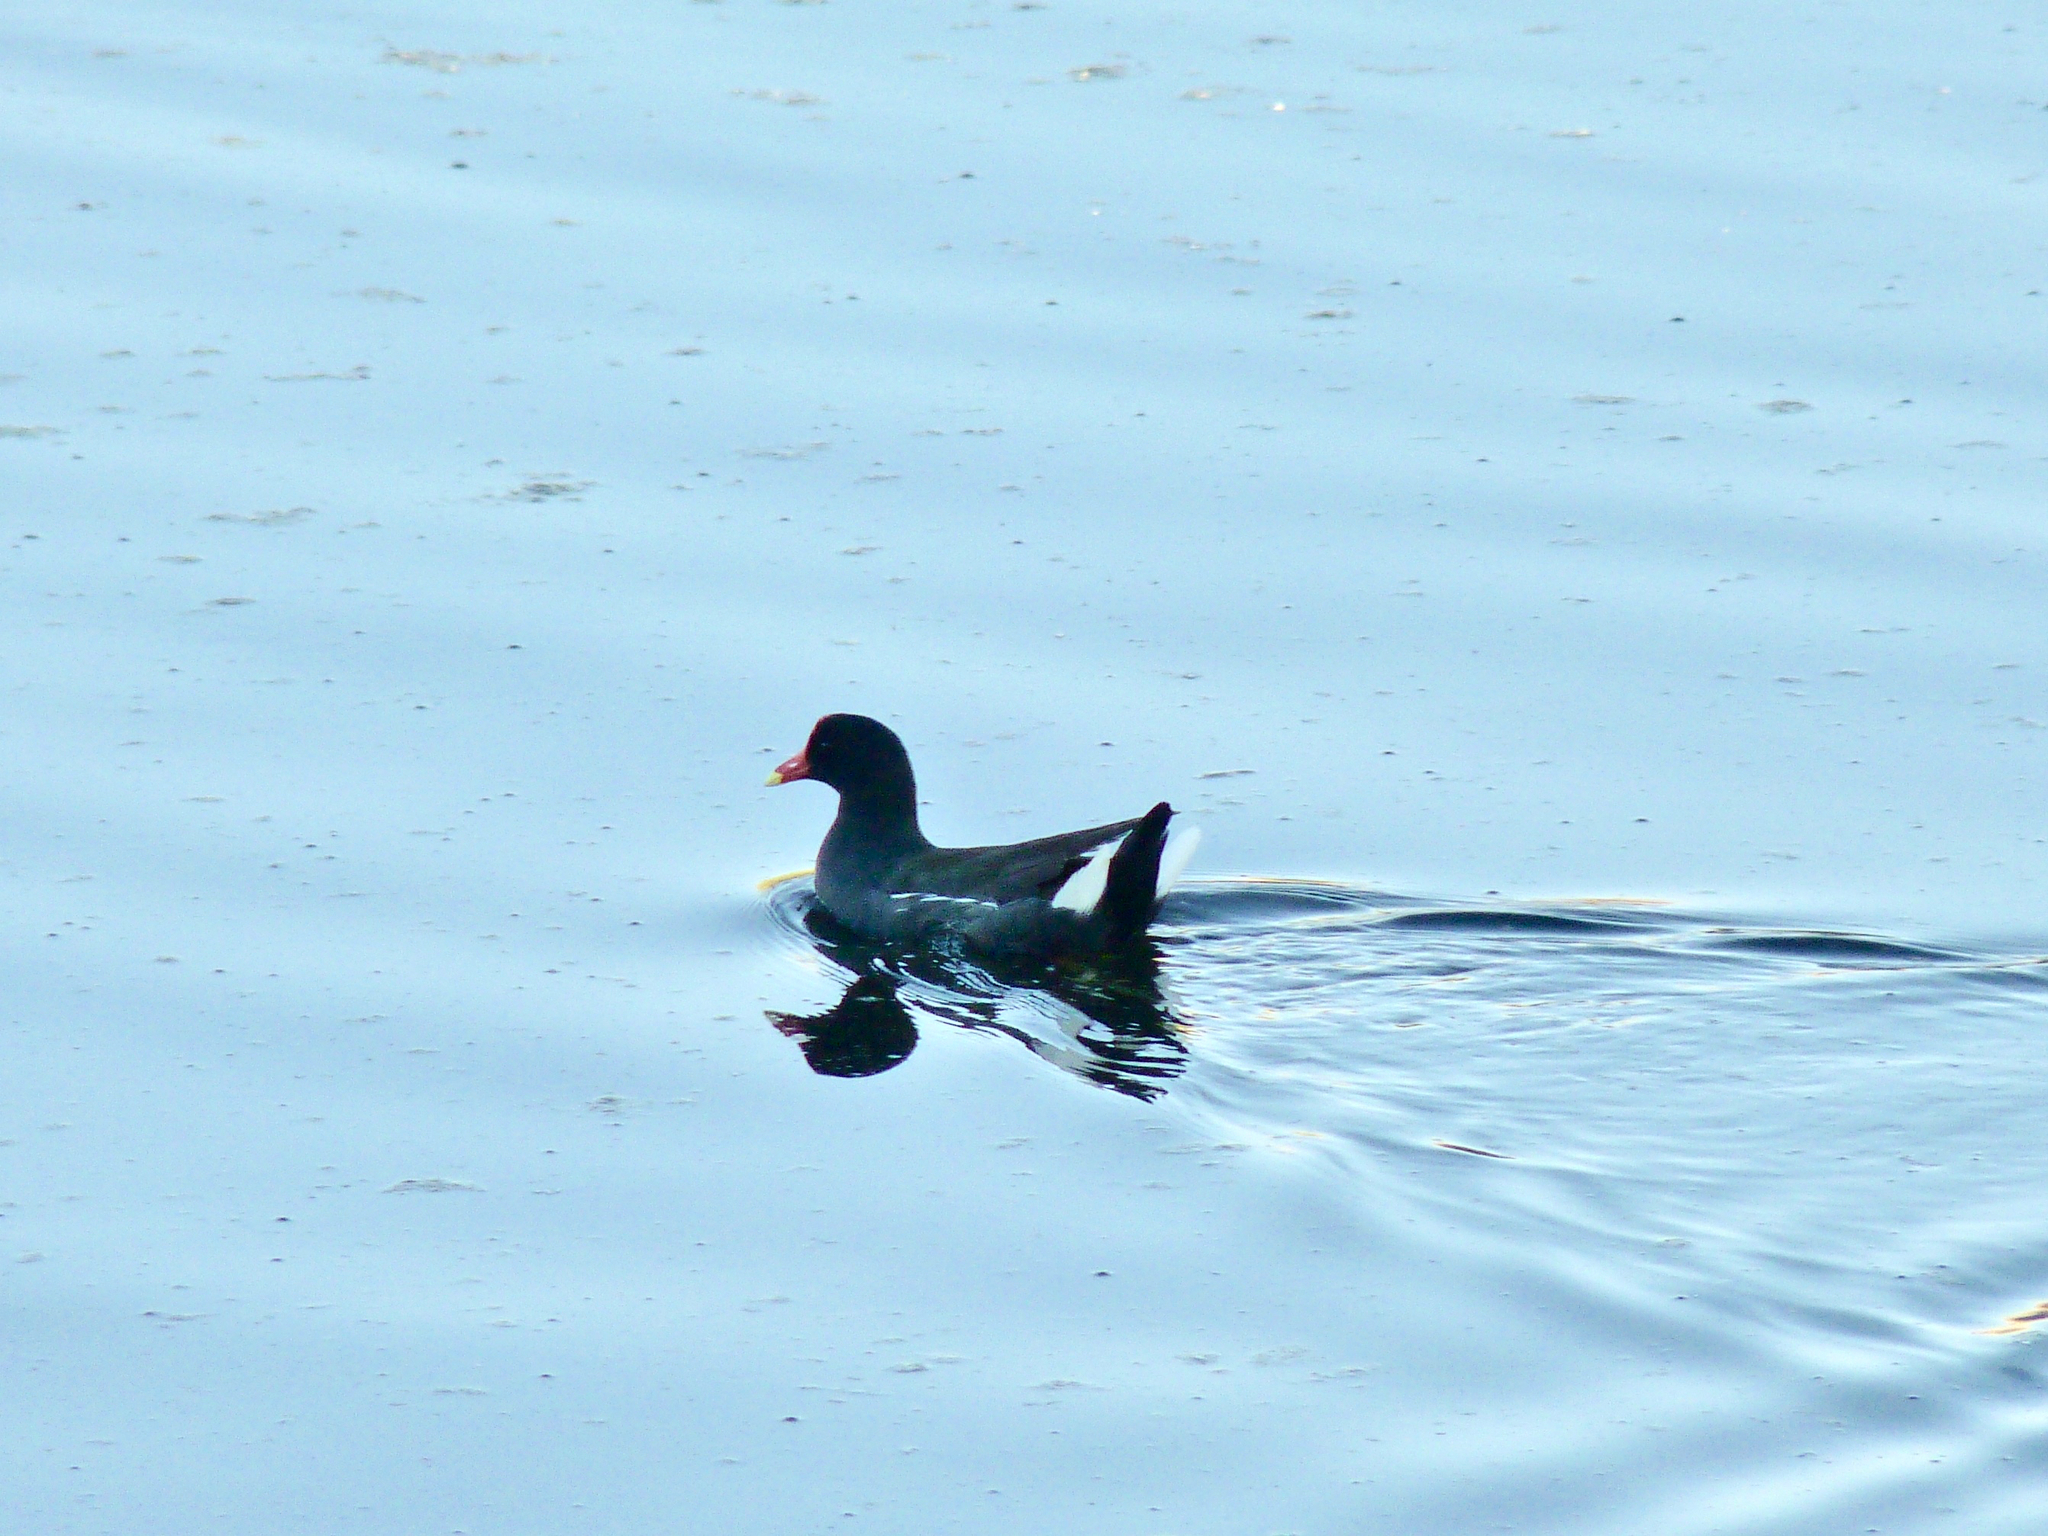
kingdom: Animalia
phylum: Chordata
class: Aves
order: Gruiformes
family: Rallidae
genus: Gallinula
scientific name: Gallinula chloropus
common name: Common moorhen
